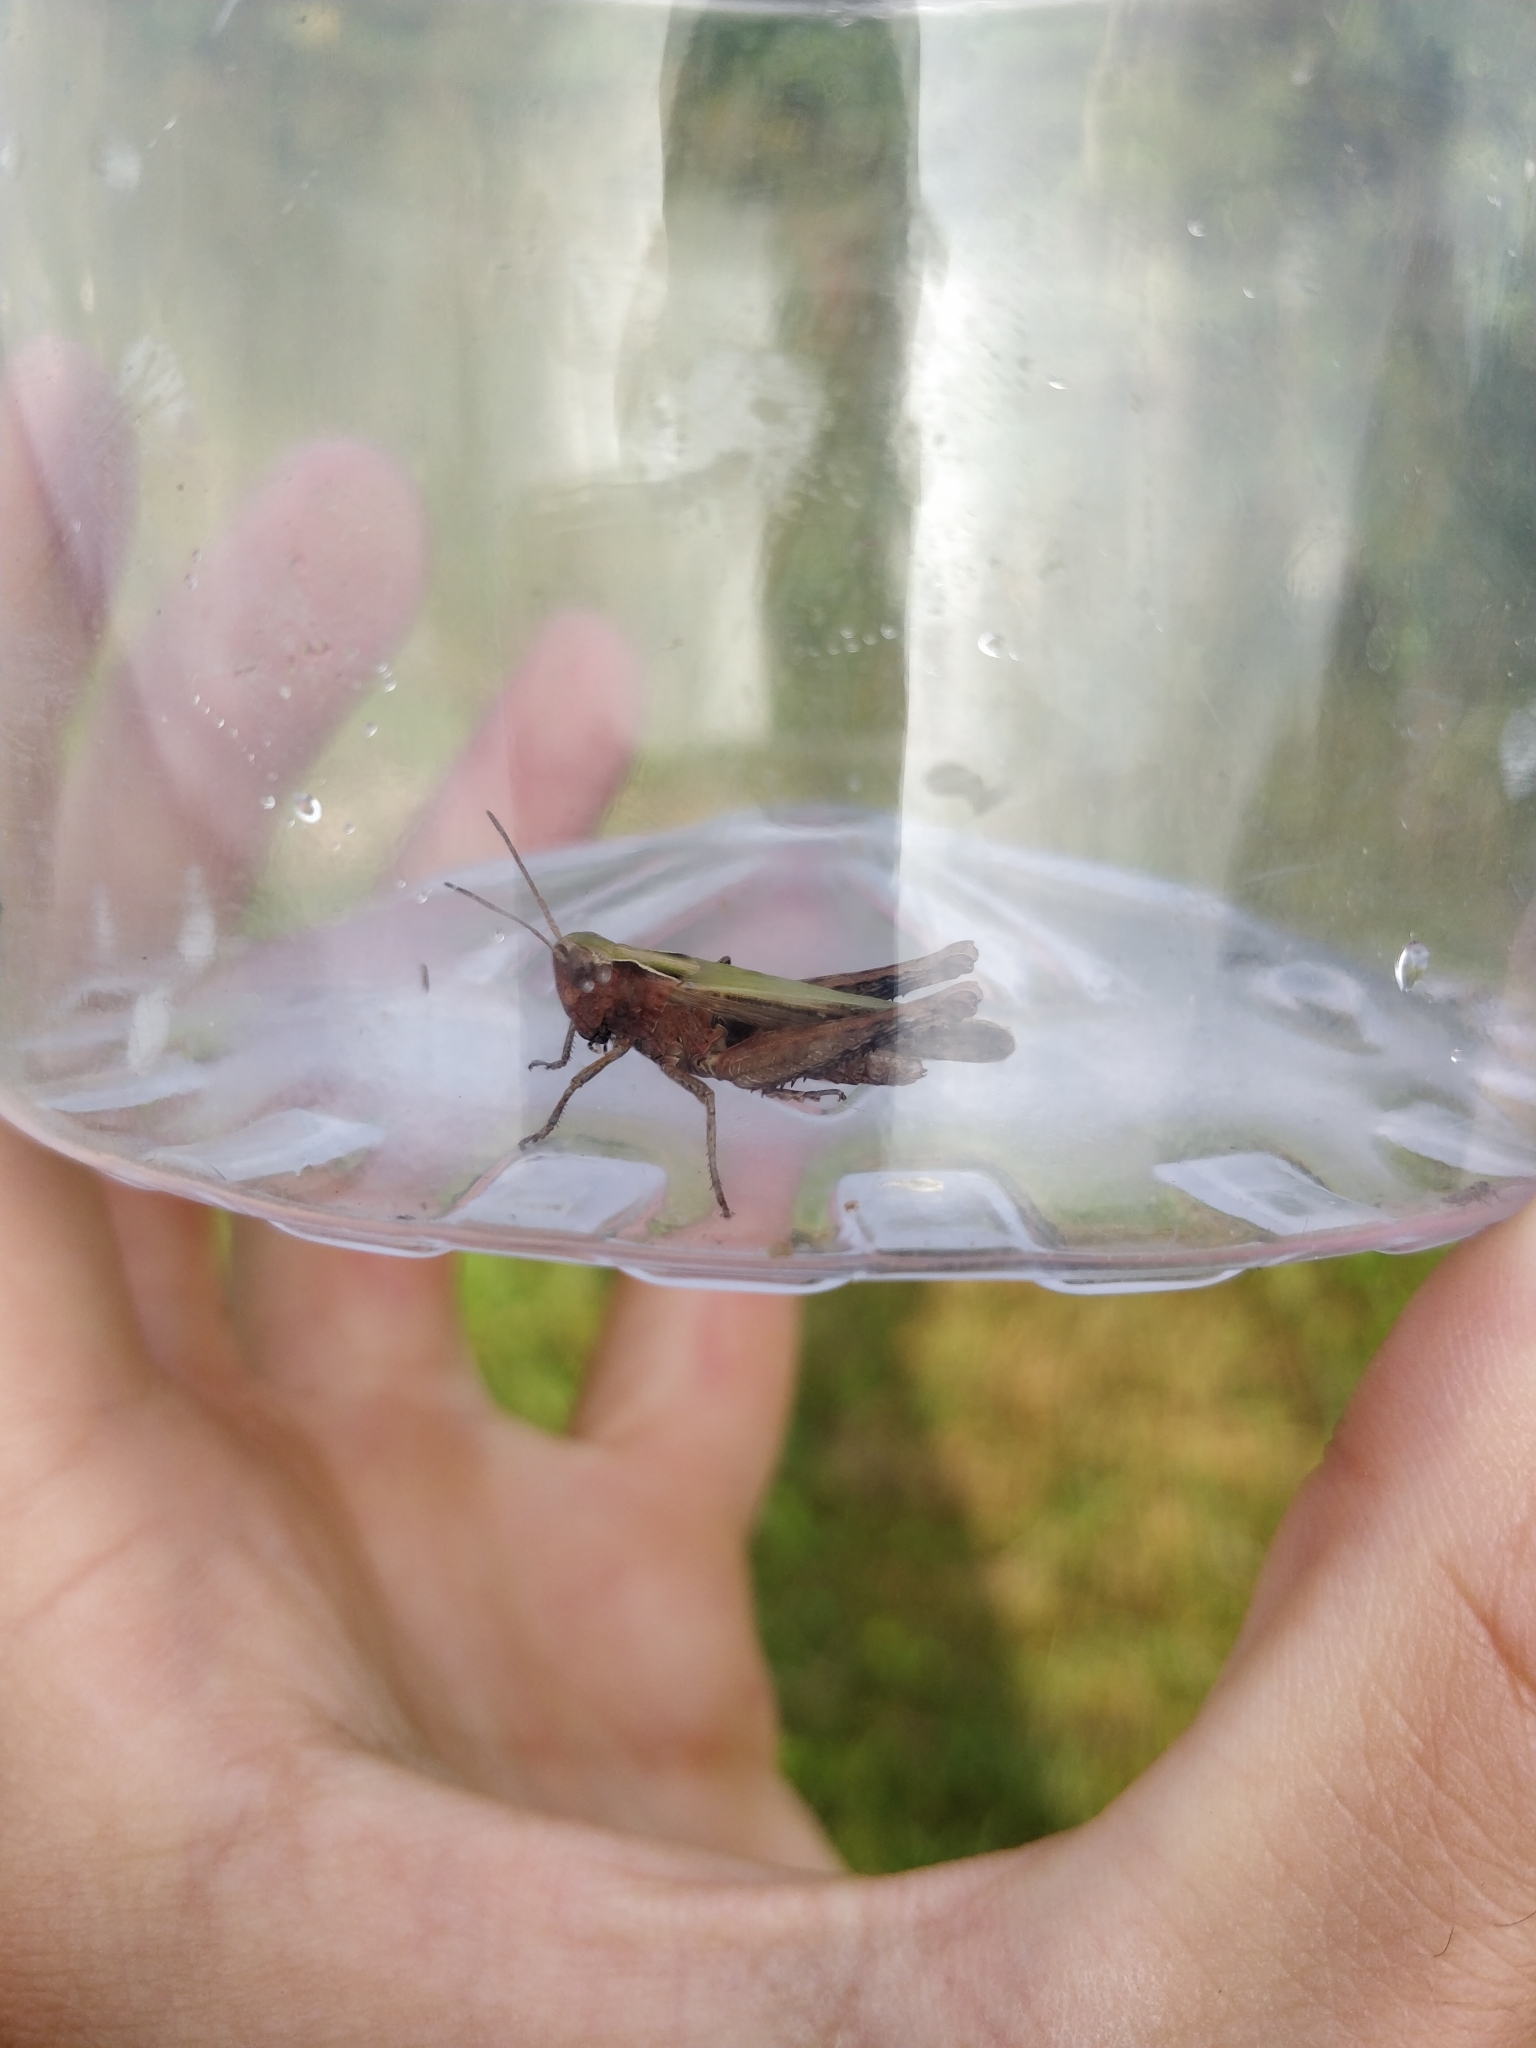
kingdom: Animalia
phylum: Arthropoda
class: Insecta
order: Orthoptera
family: Acrididae
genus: Omocestus
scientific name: Omocestus rufipes
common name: Woodland grasshopper
